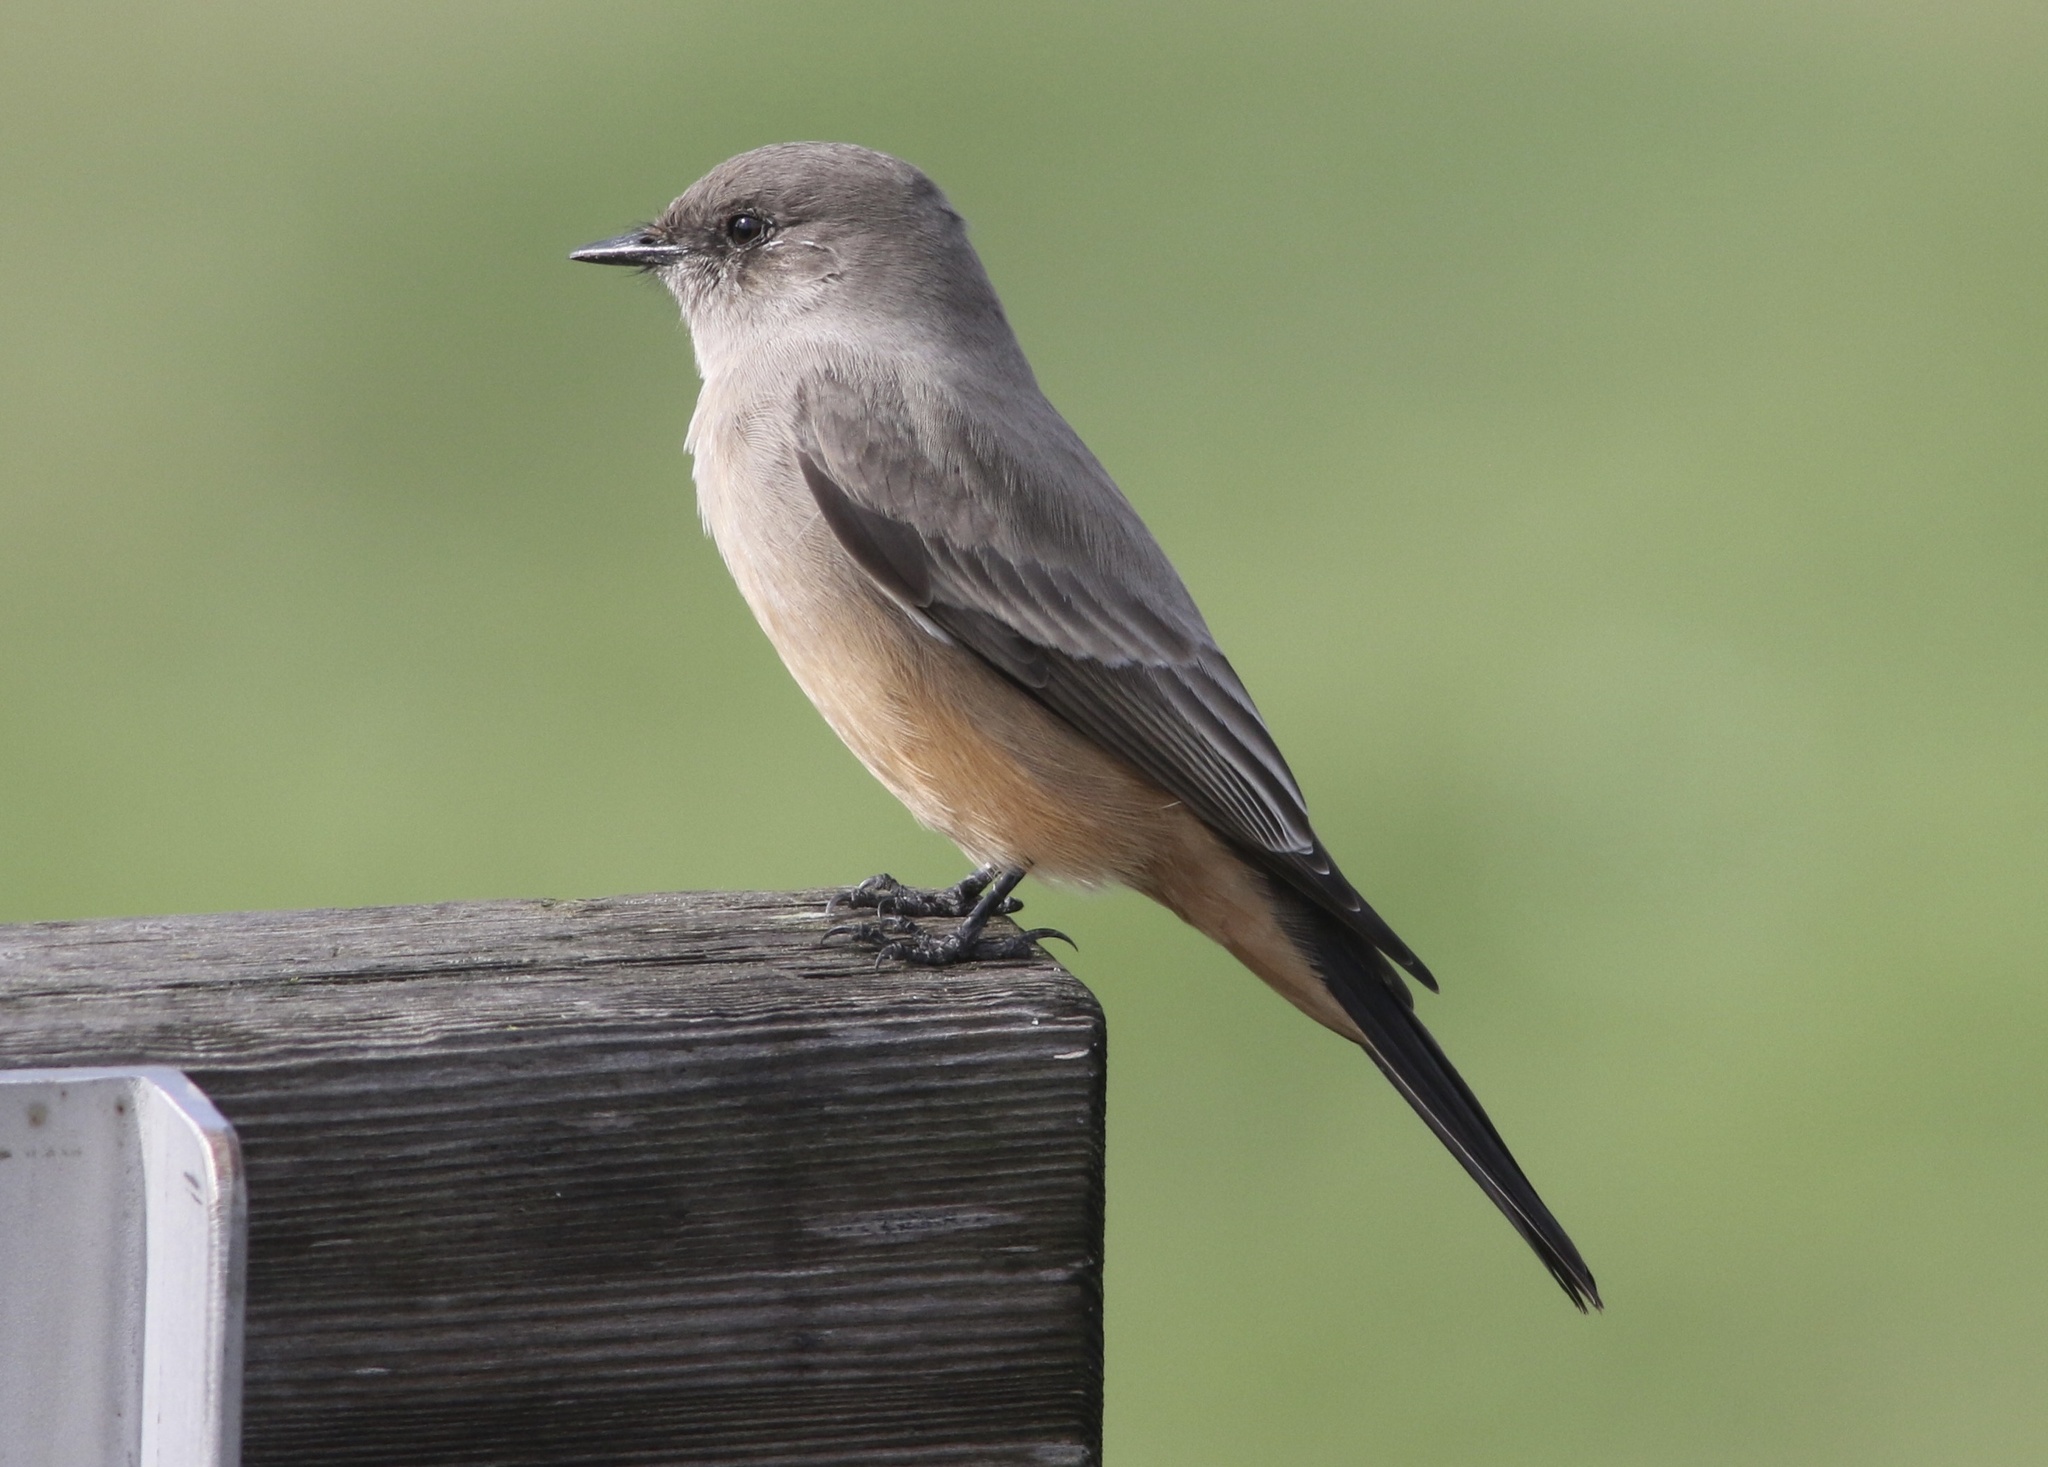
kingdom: Animalia
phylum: Chordata
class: Aves
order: Passeriformes
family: Tyrannidae
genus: Sayornis
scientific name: Sayornis saya
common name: Say's phoebe
